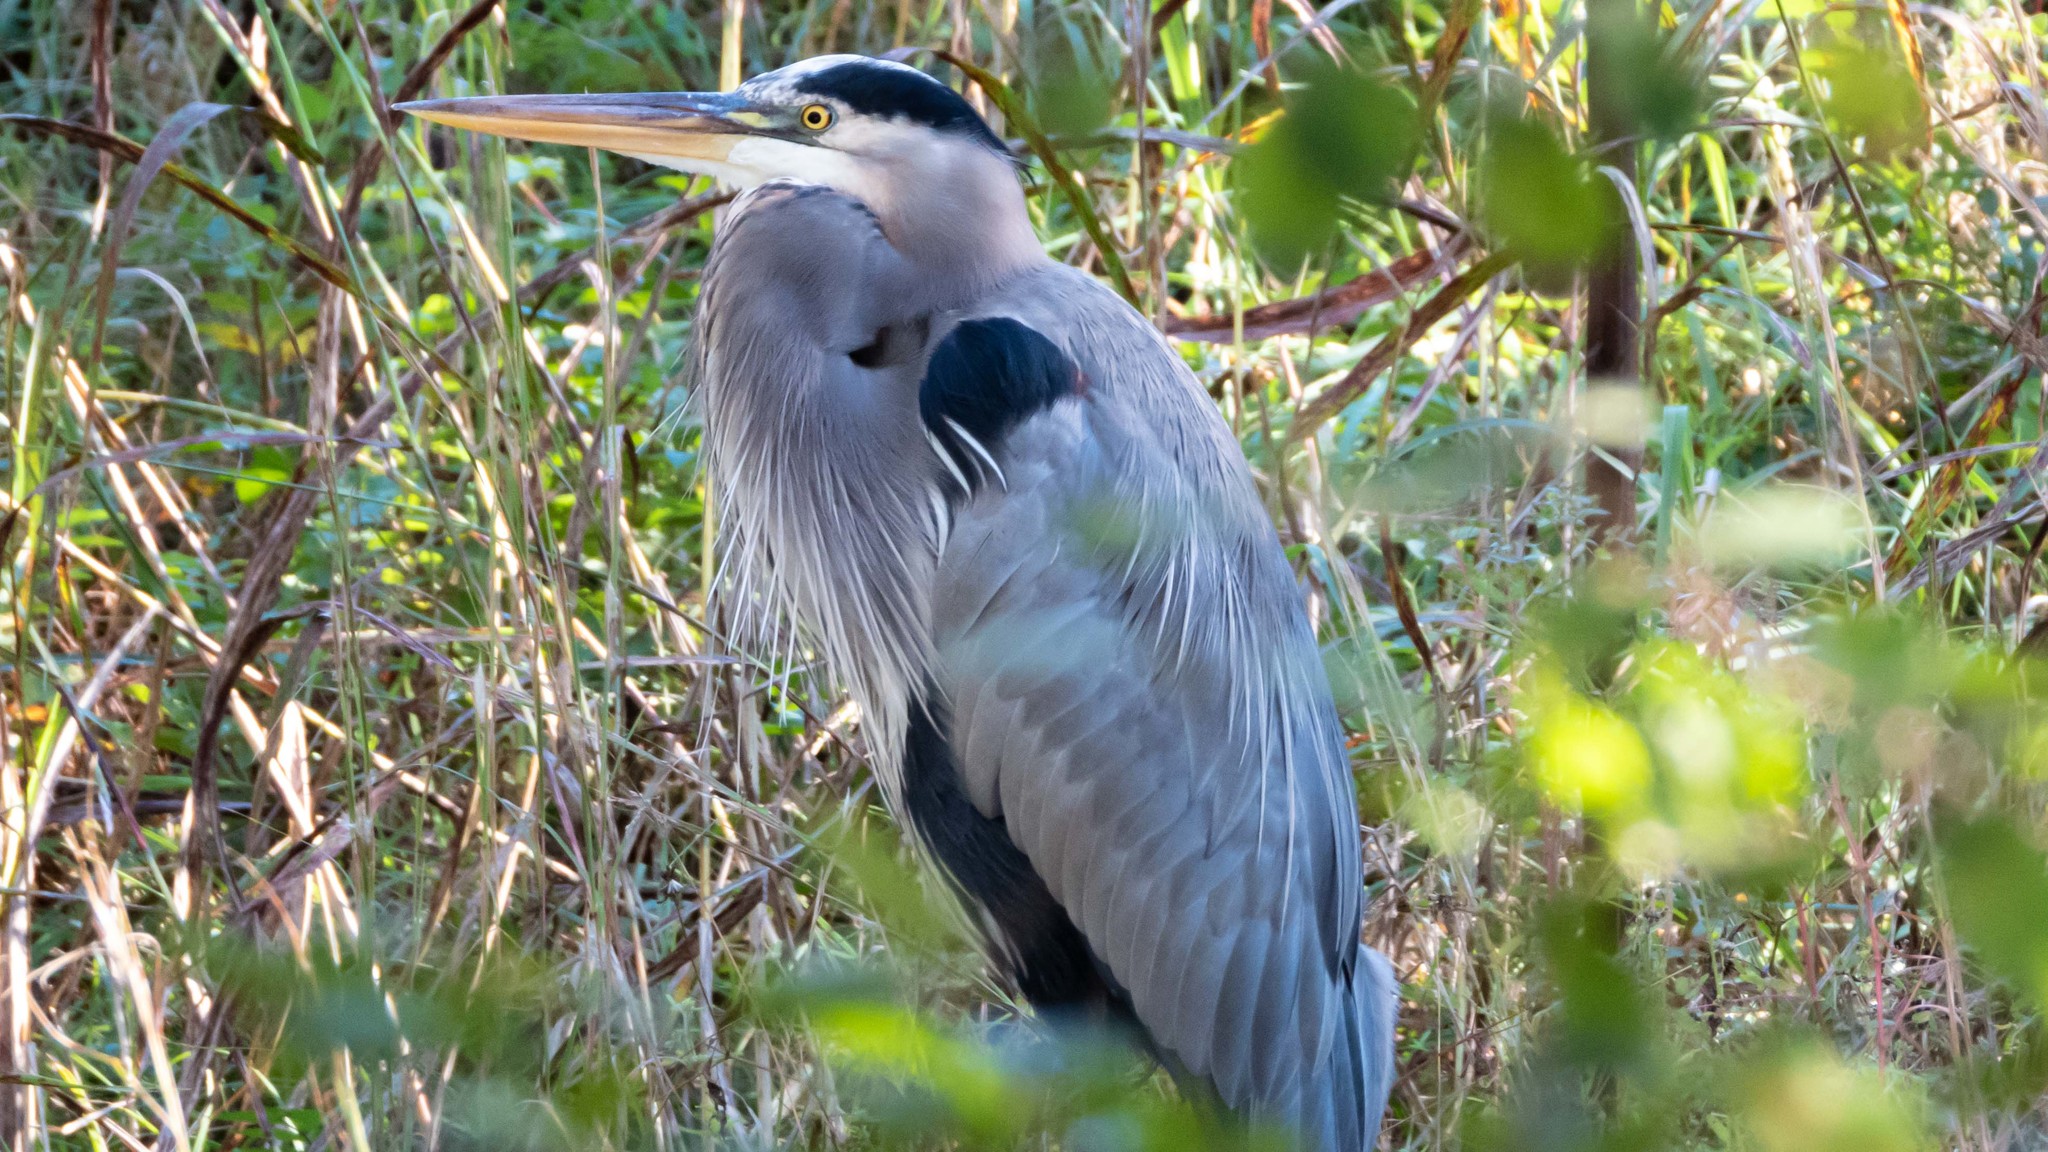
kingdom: Animalia
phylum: Chordata
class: Aves
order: Pelecaniformes
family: Ardeidae
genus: Ardea
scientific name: Ardea herodias
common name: Great blue heron
